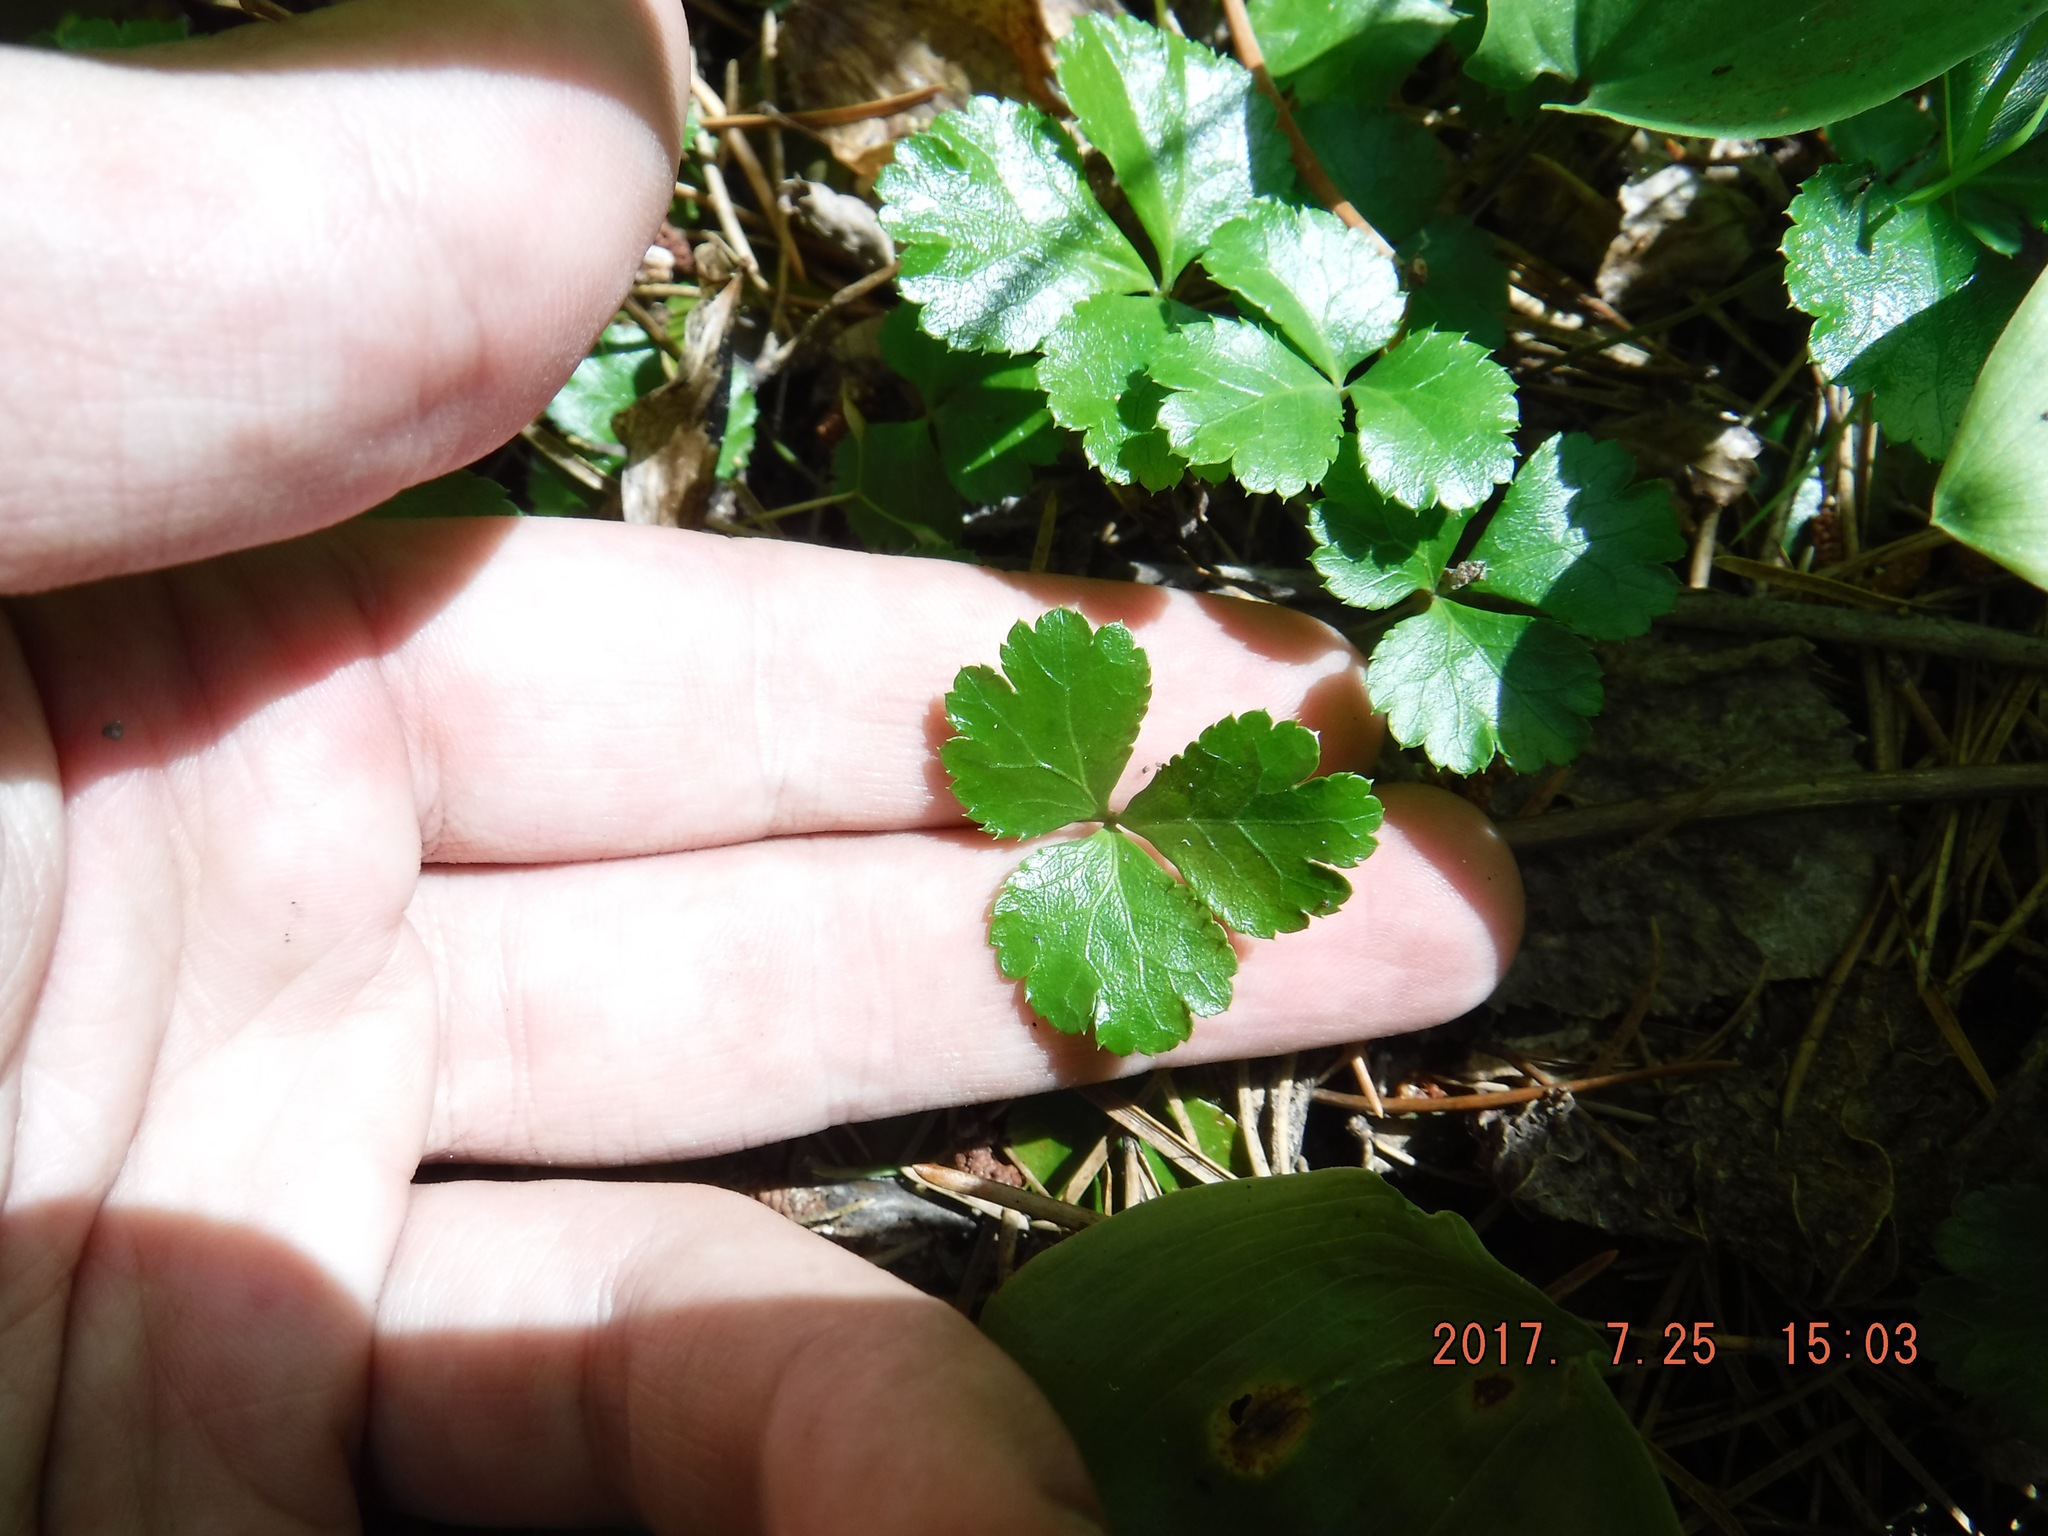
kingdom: Plantae
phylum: Tracheophyta
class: Magnoliopsida
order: Ranunculales
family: Ranunculaceae
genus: Coptis
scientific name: Coptis trifolia
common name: Canker-root
